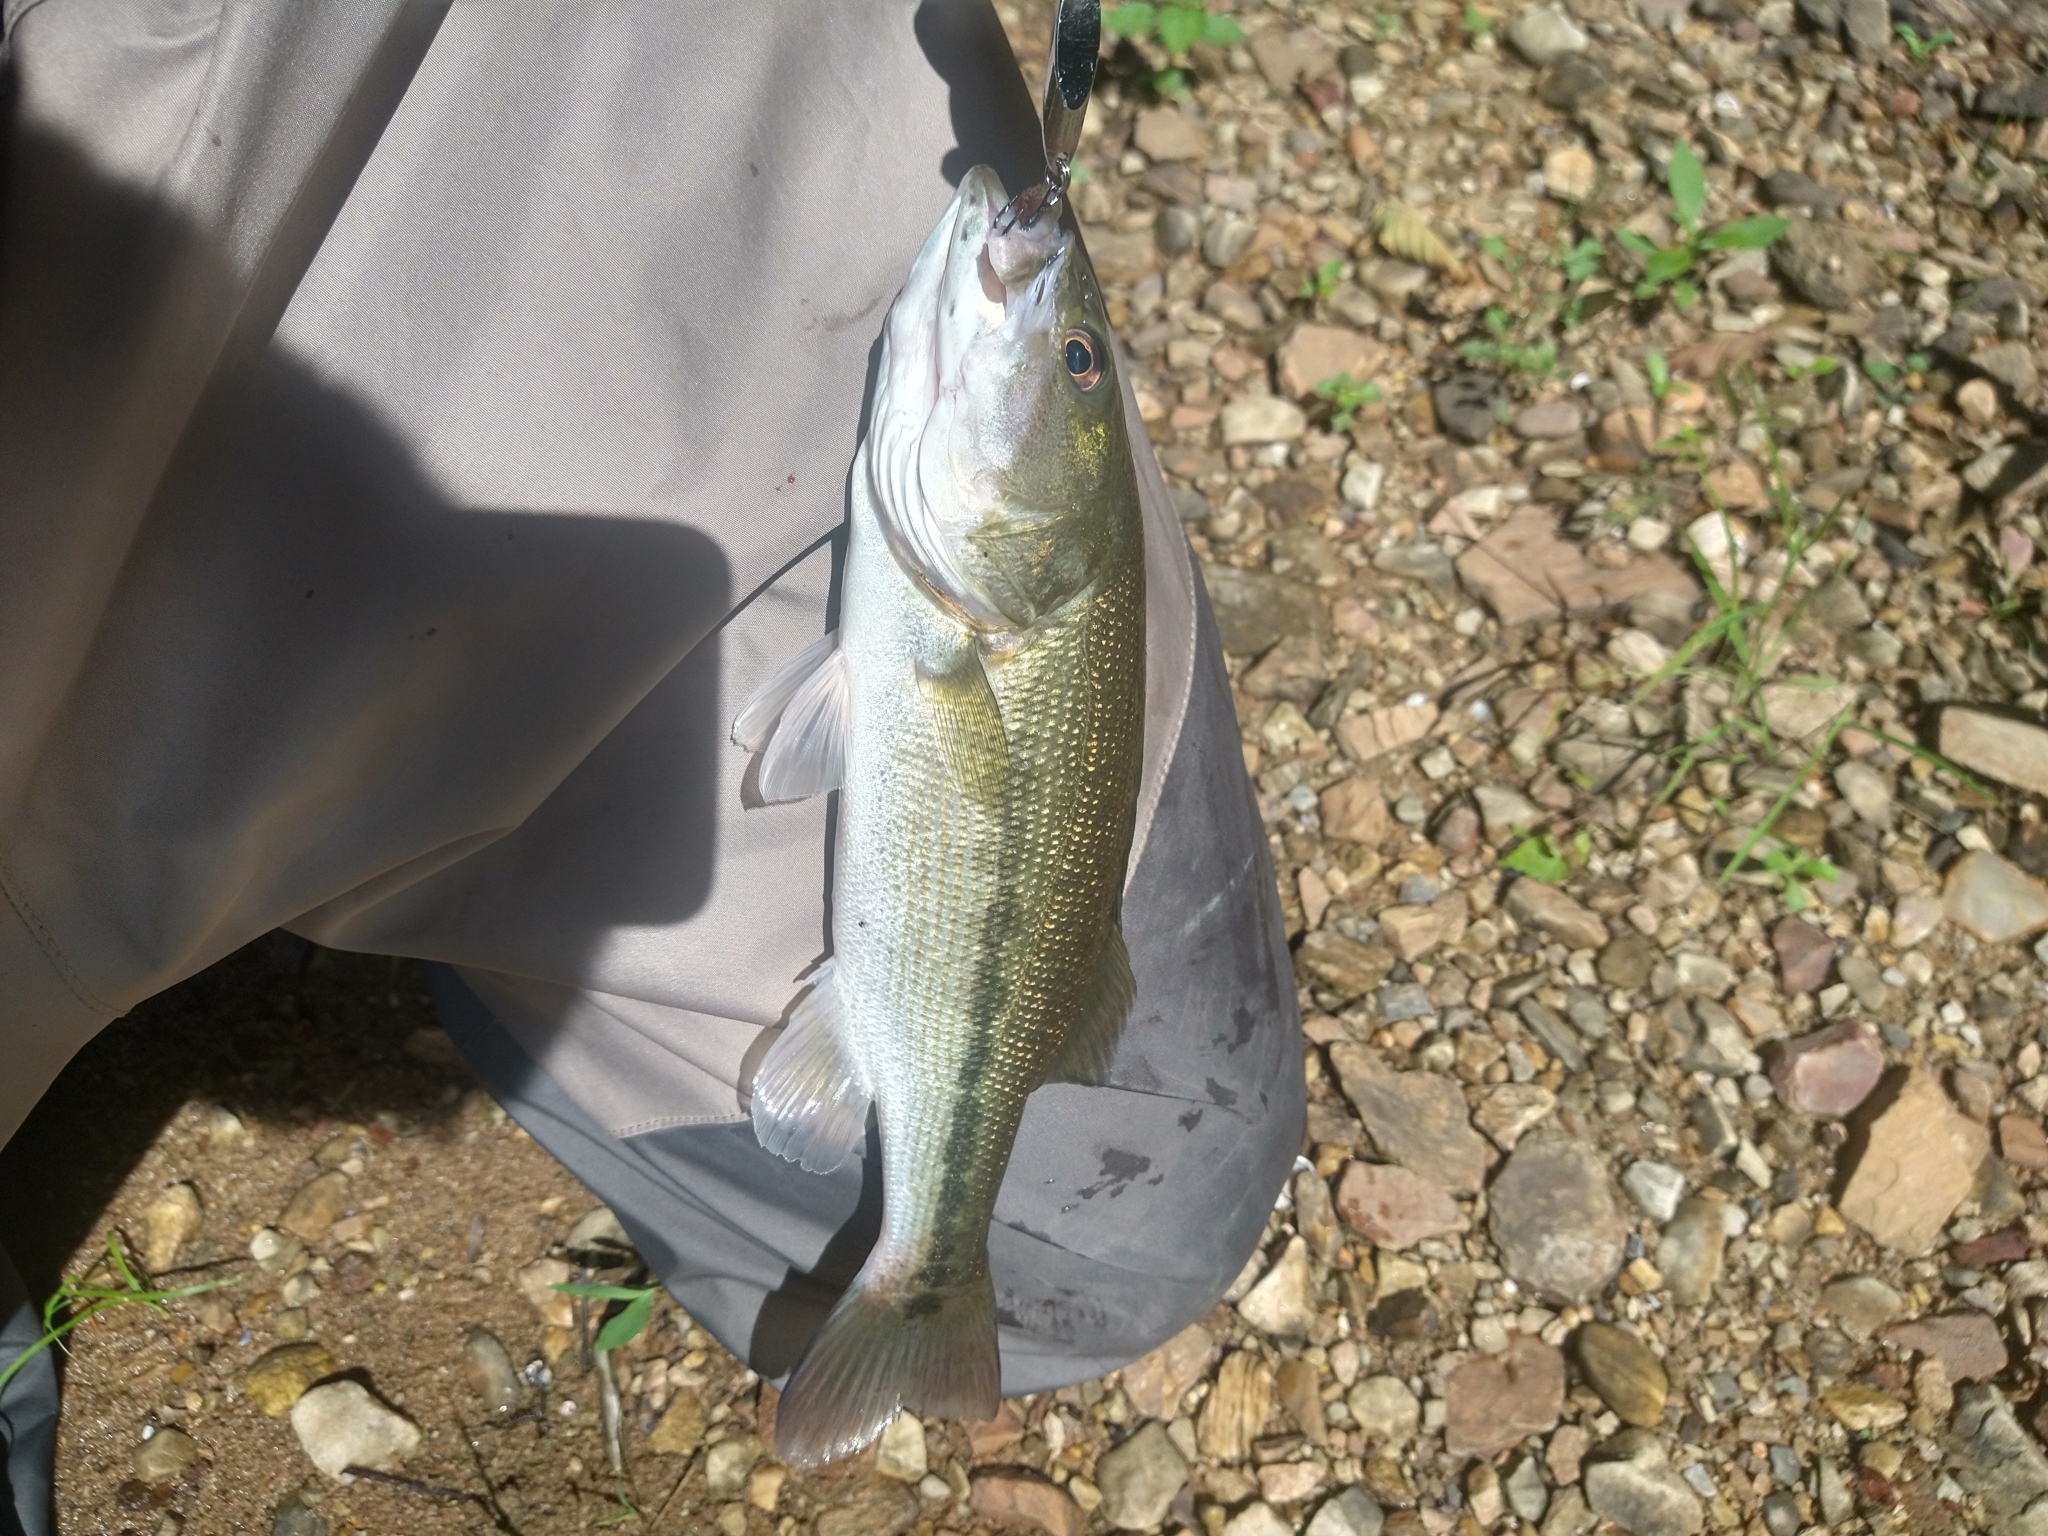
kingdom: Animalia
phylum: Chordata
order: Perciformes
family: Centrarchidae
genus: Micropterus
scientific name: Micropterus henshalli
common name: Alabama bass
